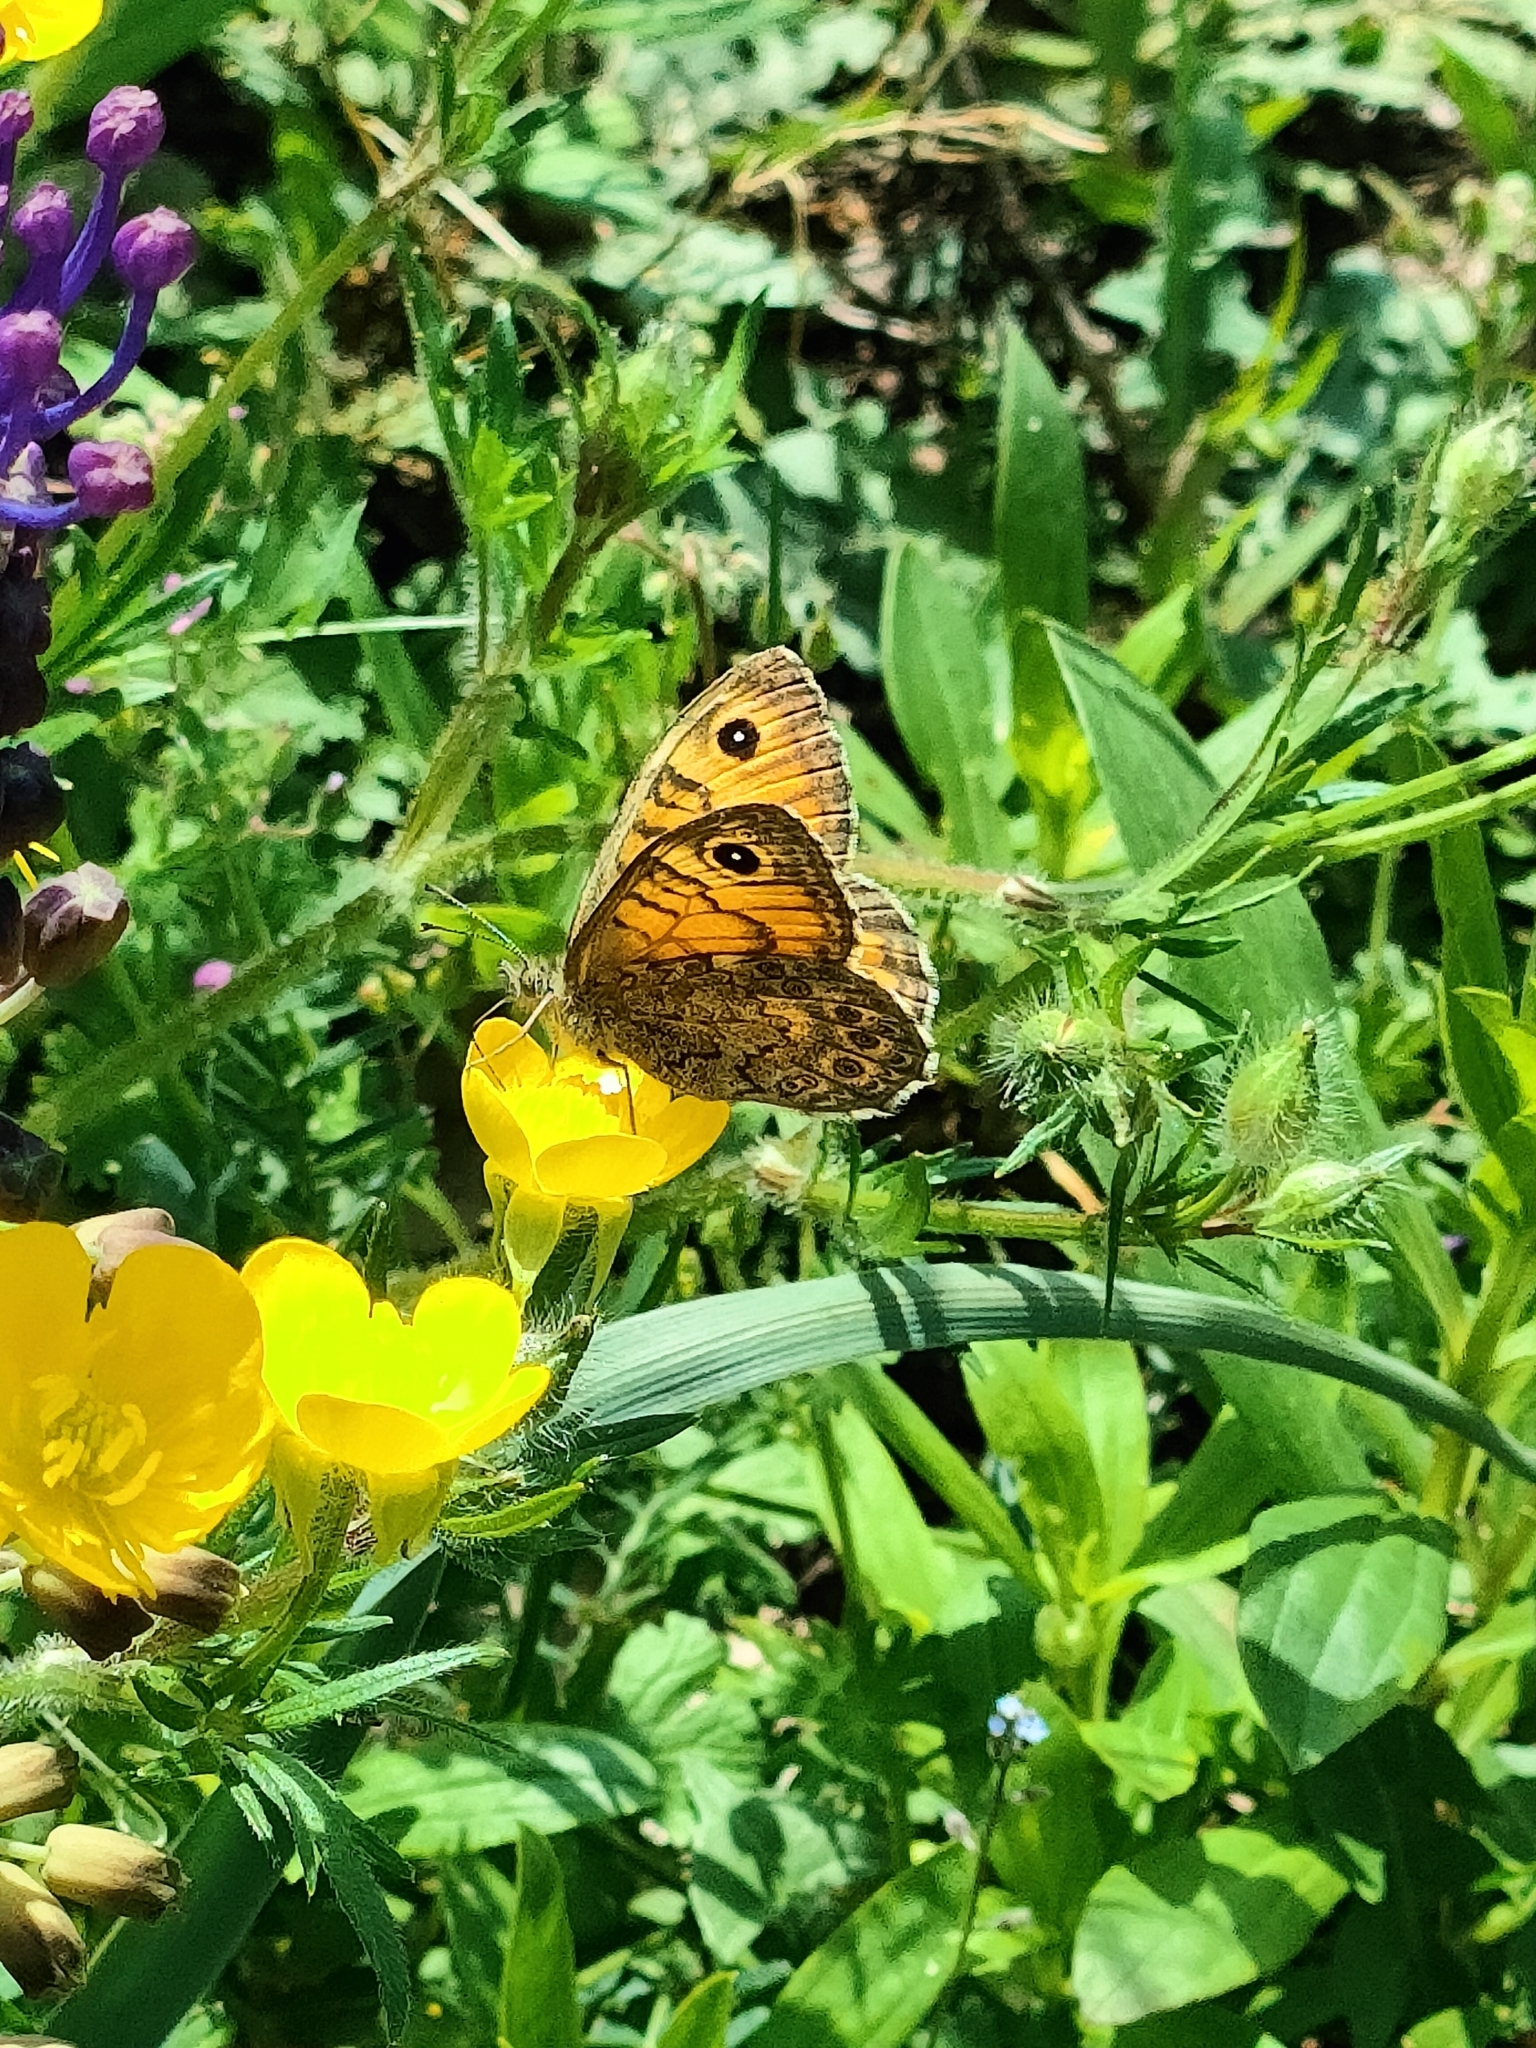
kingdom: Animalia
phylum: Arthropoda
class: Insecta
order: Lepidoptera
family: Nymphalidae
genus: Pararge
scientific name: Pararge Lasiommata megera
